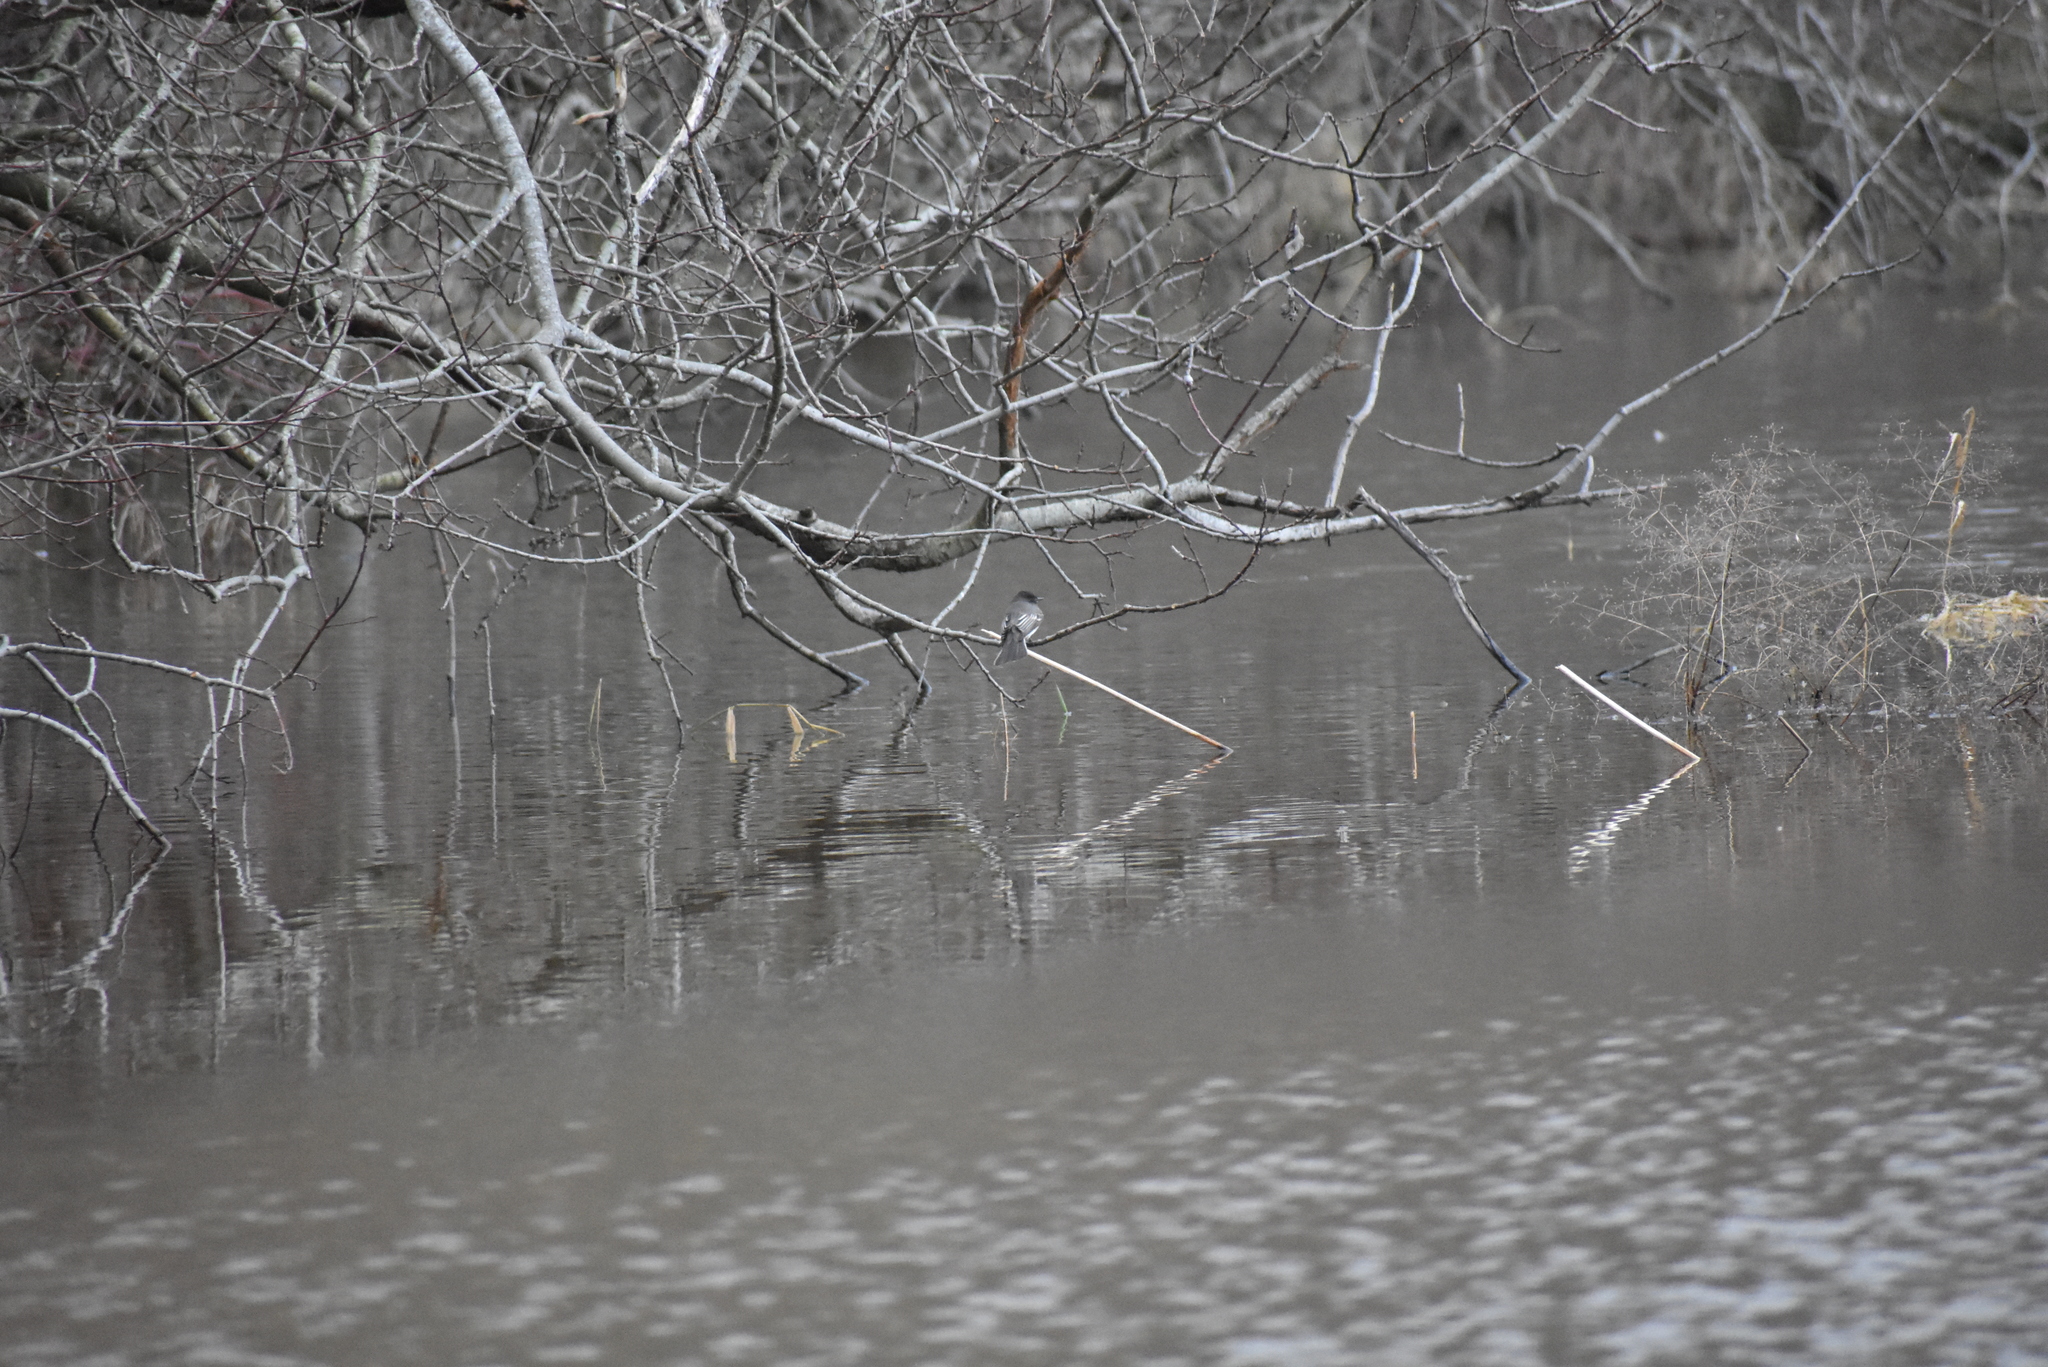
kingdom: Animalia
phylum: Chordata
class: Aves
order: Passeriformes
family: Tyrannidae
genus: Sayornis
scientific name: Sayornis nigricans
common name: Black phoebe
